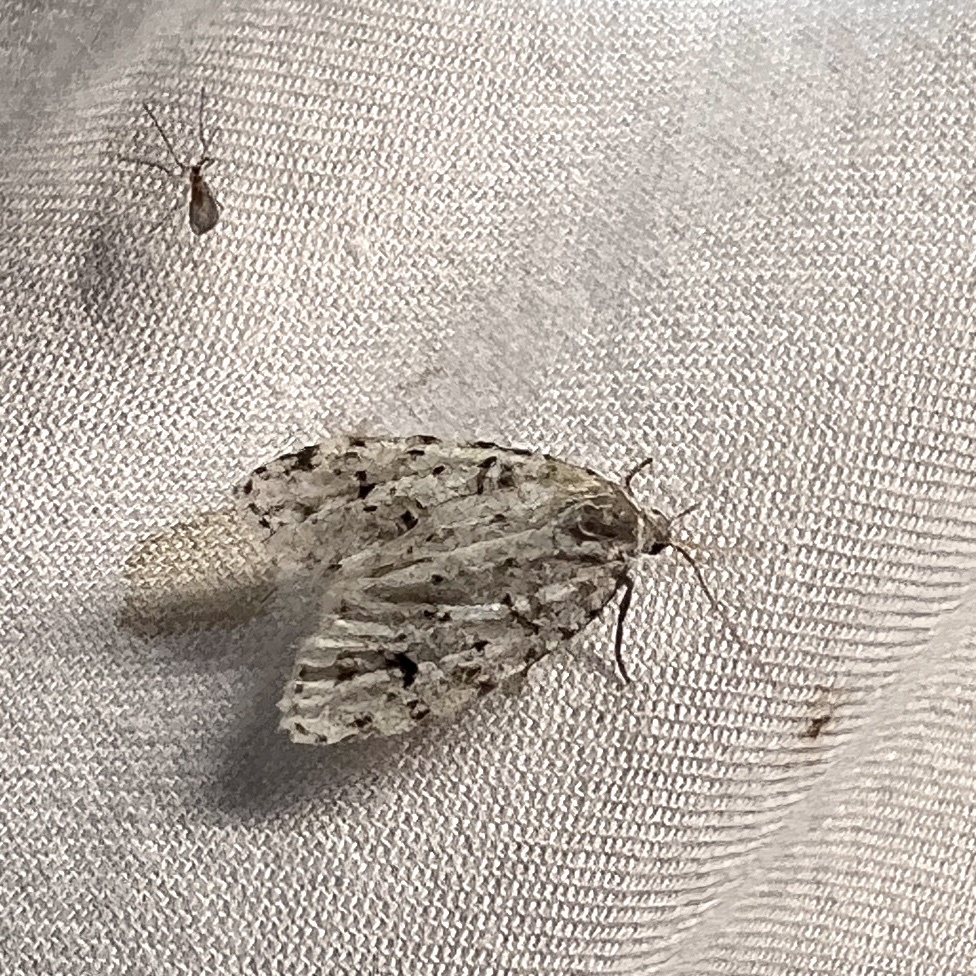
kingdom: Animalia
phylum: Arthropoda
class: Insecta
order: Lepidoptera
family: Erebidae
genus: Clemensia
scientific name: Clemensia albata
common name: Little white lichen moth
